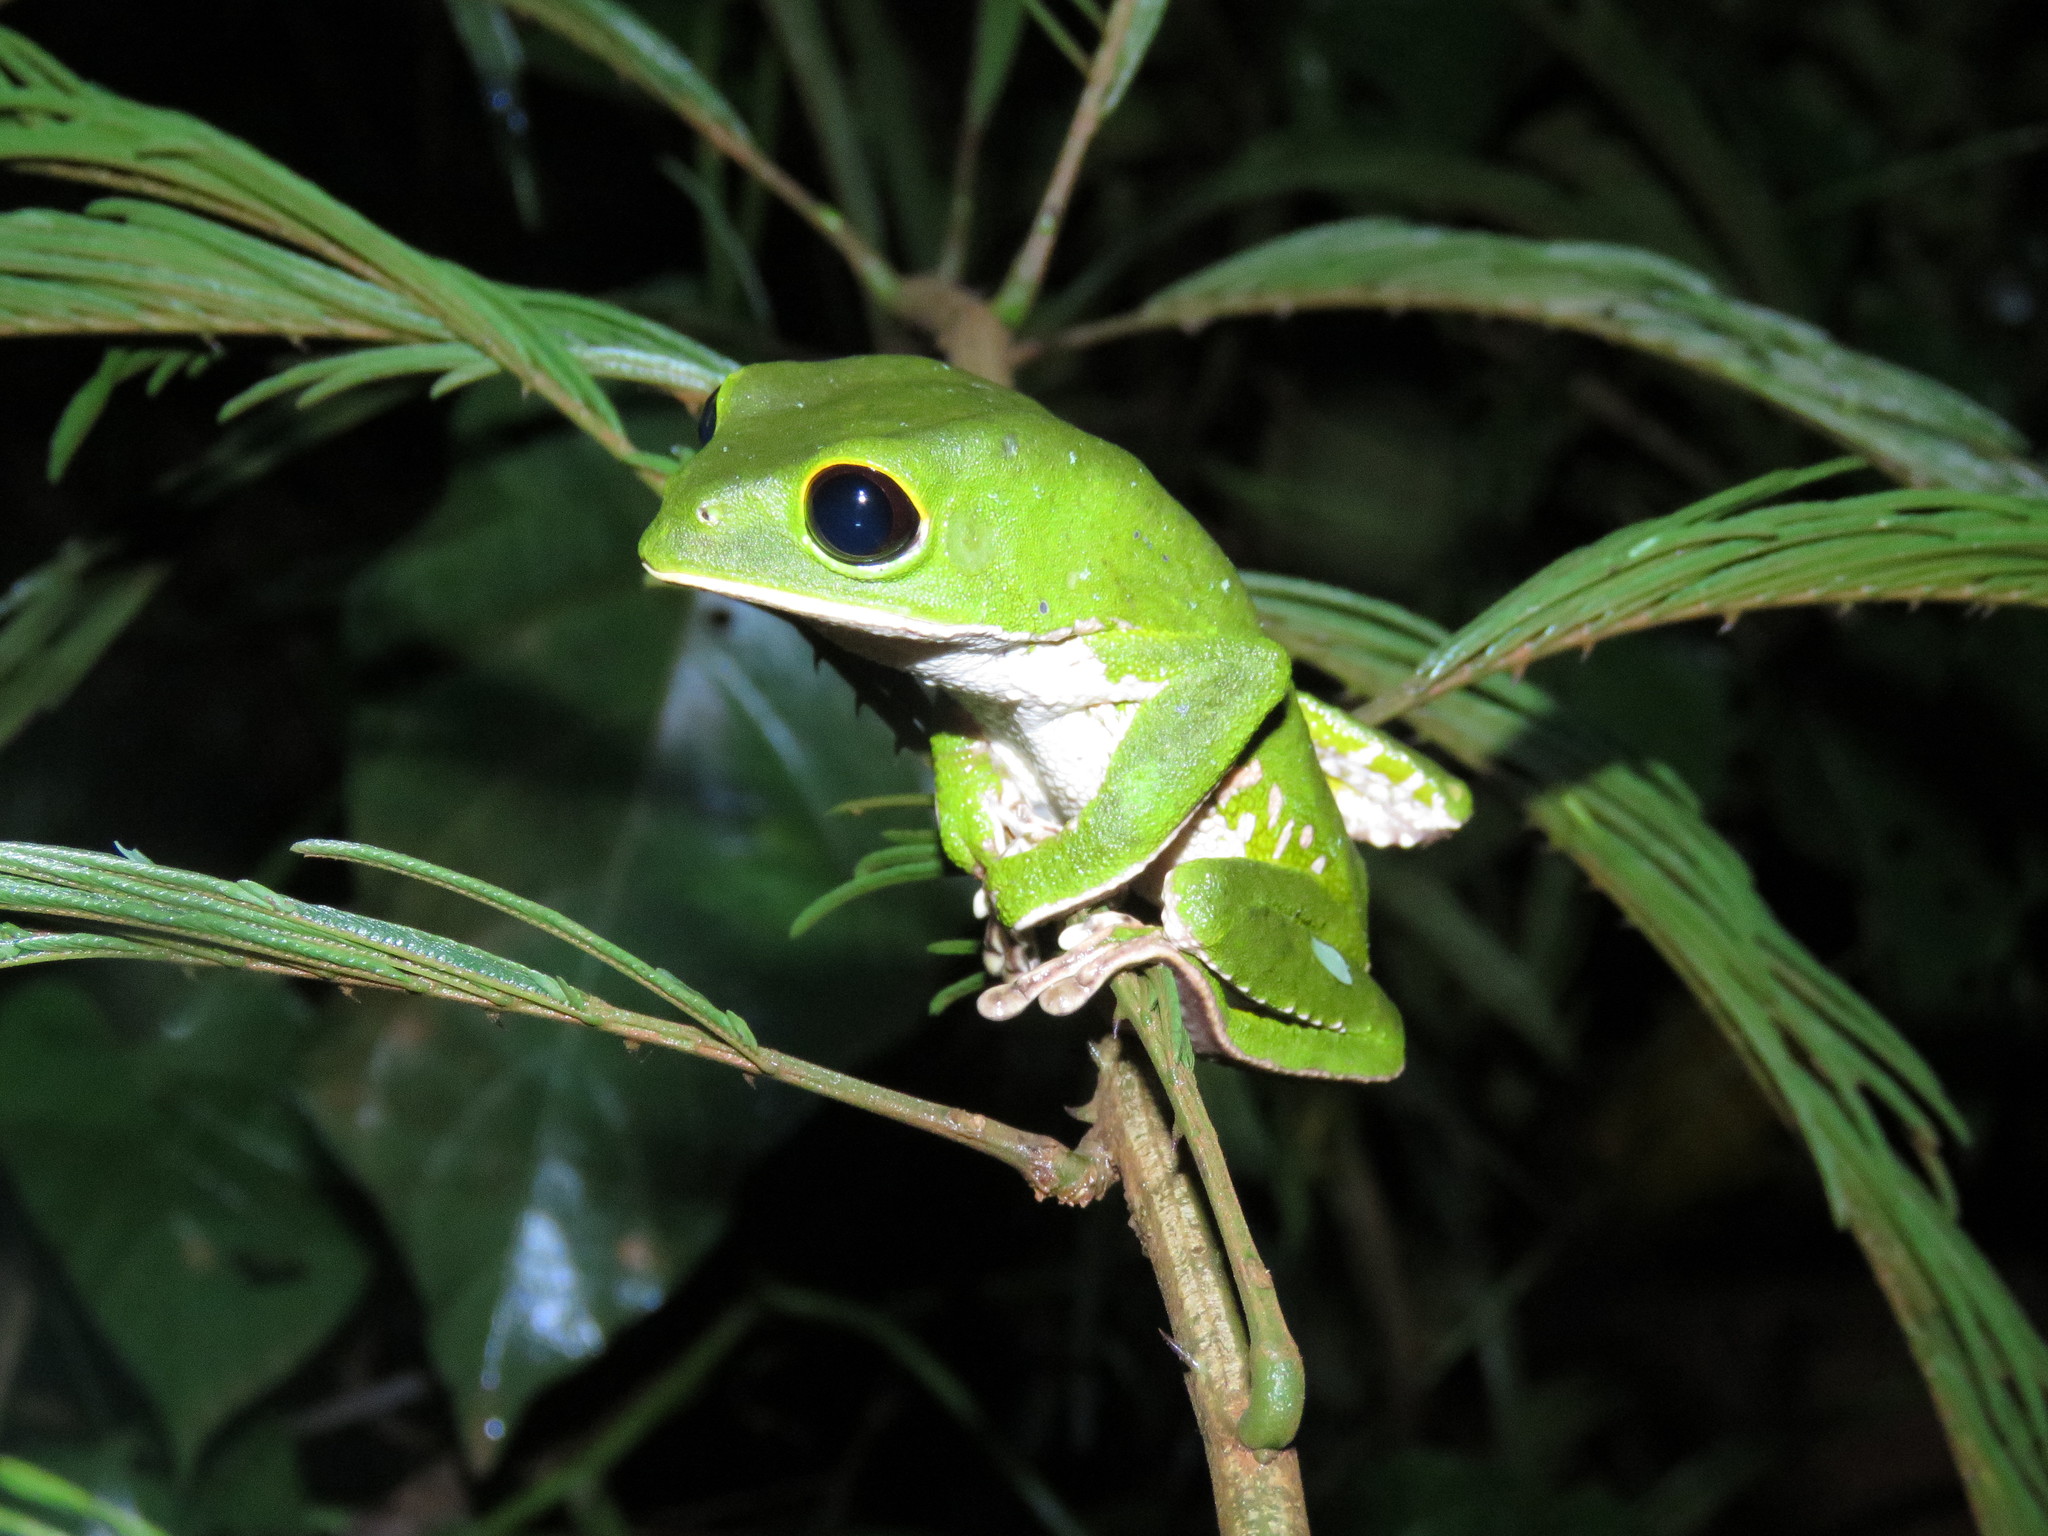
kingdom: Animalia
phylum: Chordata
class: Amphibia
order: Anura
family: Phyllomedusidae
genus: Phyllomedusa
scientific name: Phyllomedusa camba
